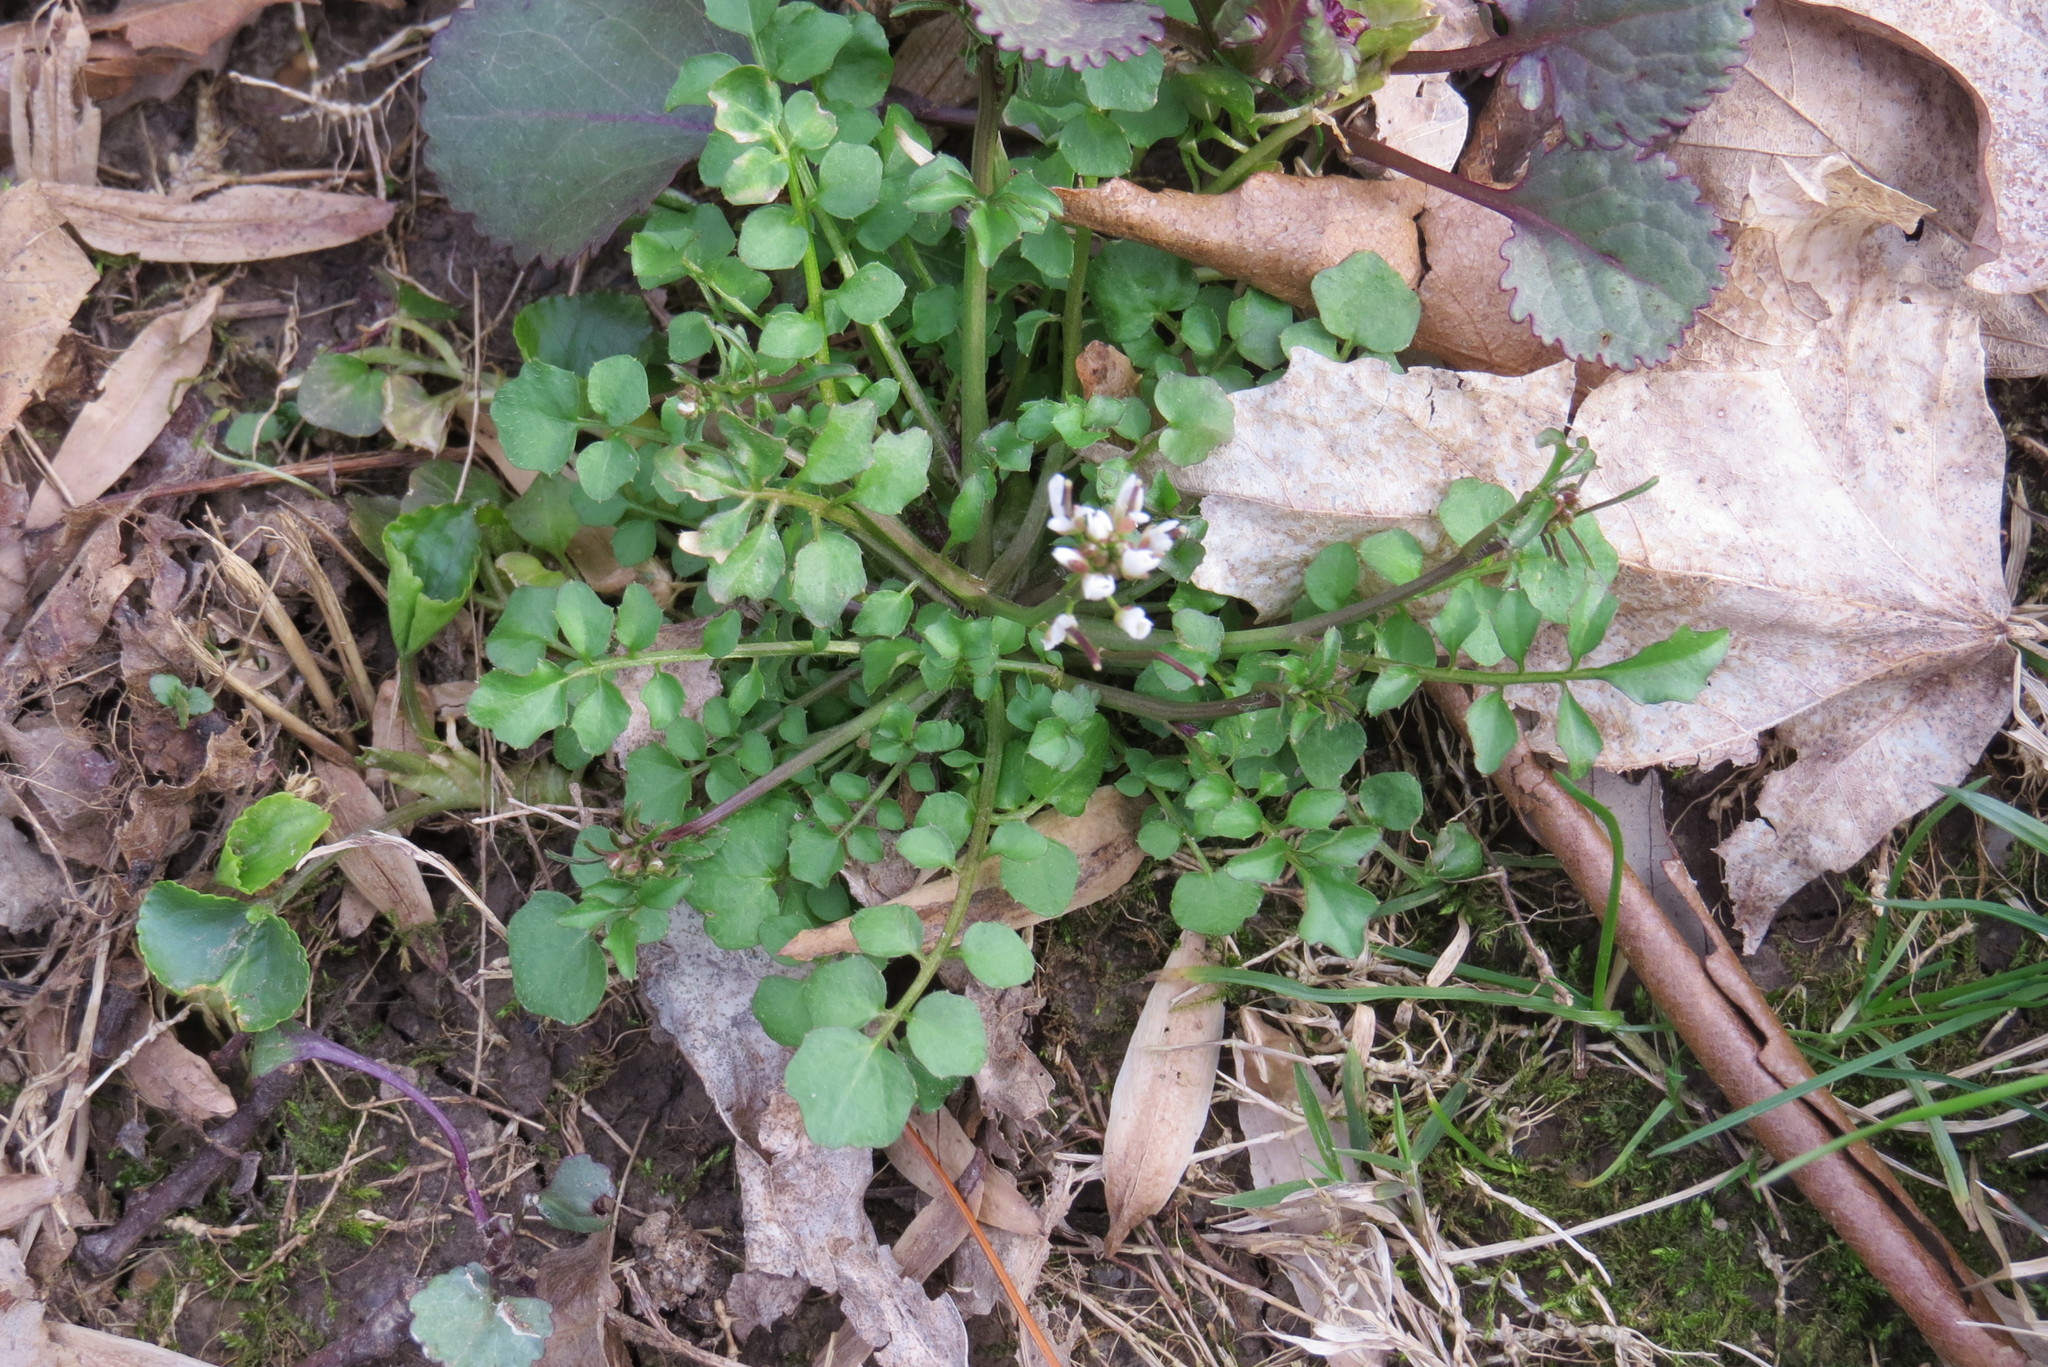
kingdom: Plantae
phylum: Tracheophyta
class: Magnoliopsida
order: Brassicales
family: Brassicaceae
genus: Cardamine
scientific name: Cardamine hirsuta
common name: Hairy bittercress
